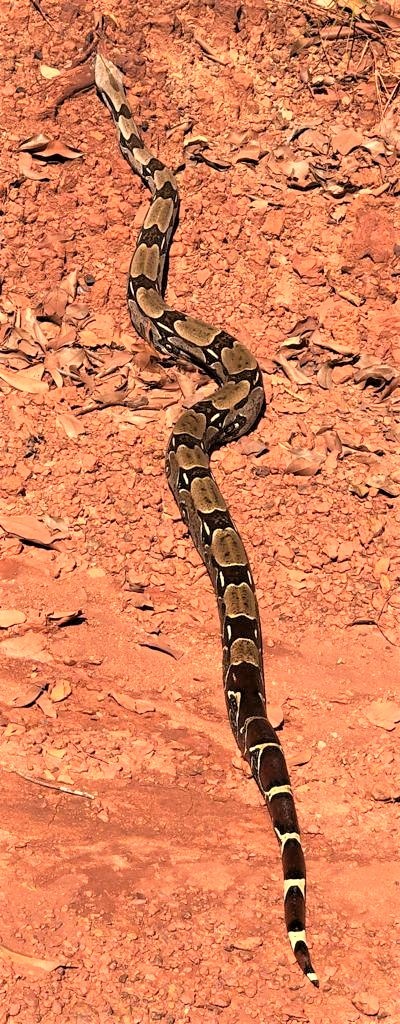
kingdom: Animalia
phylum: Chordata
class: Squamata
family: Boidae
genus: Boa
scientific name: Boa constrictor
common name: Boa constrictor
